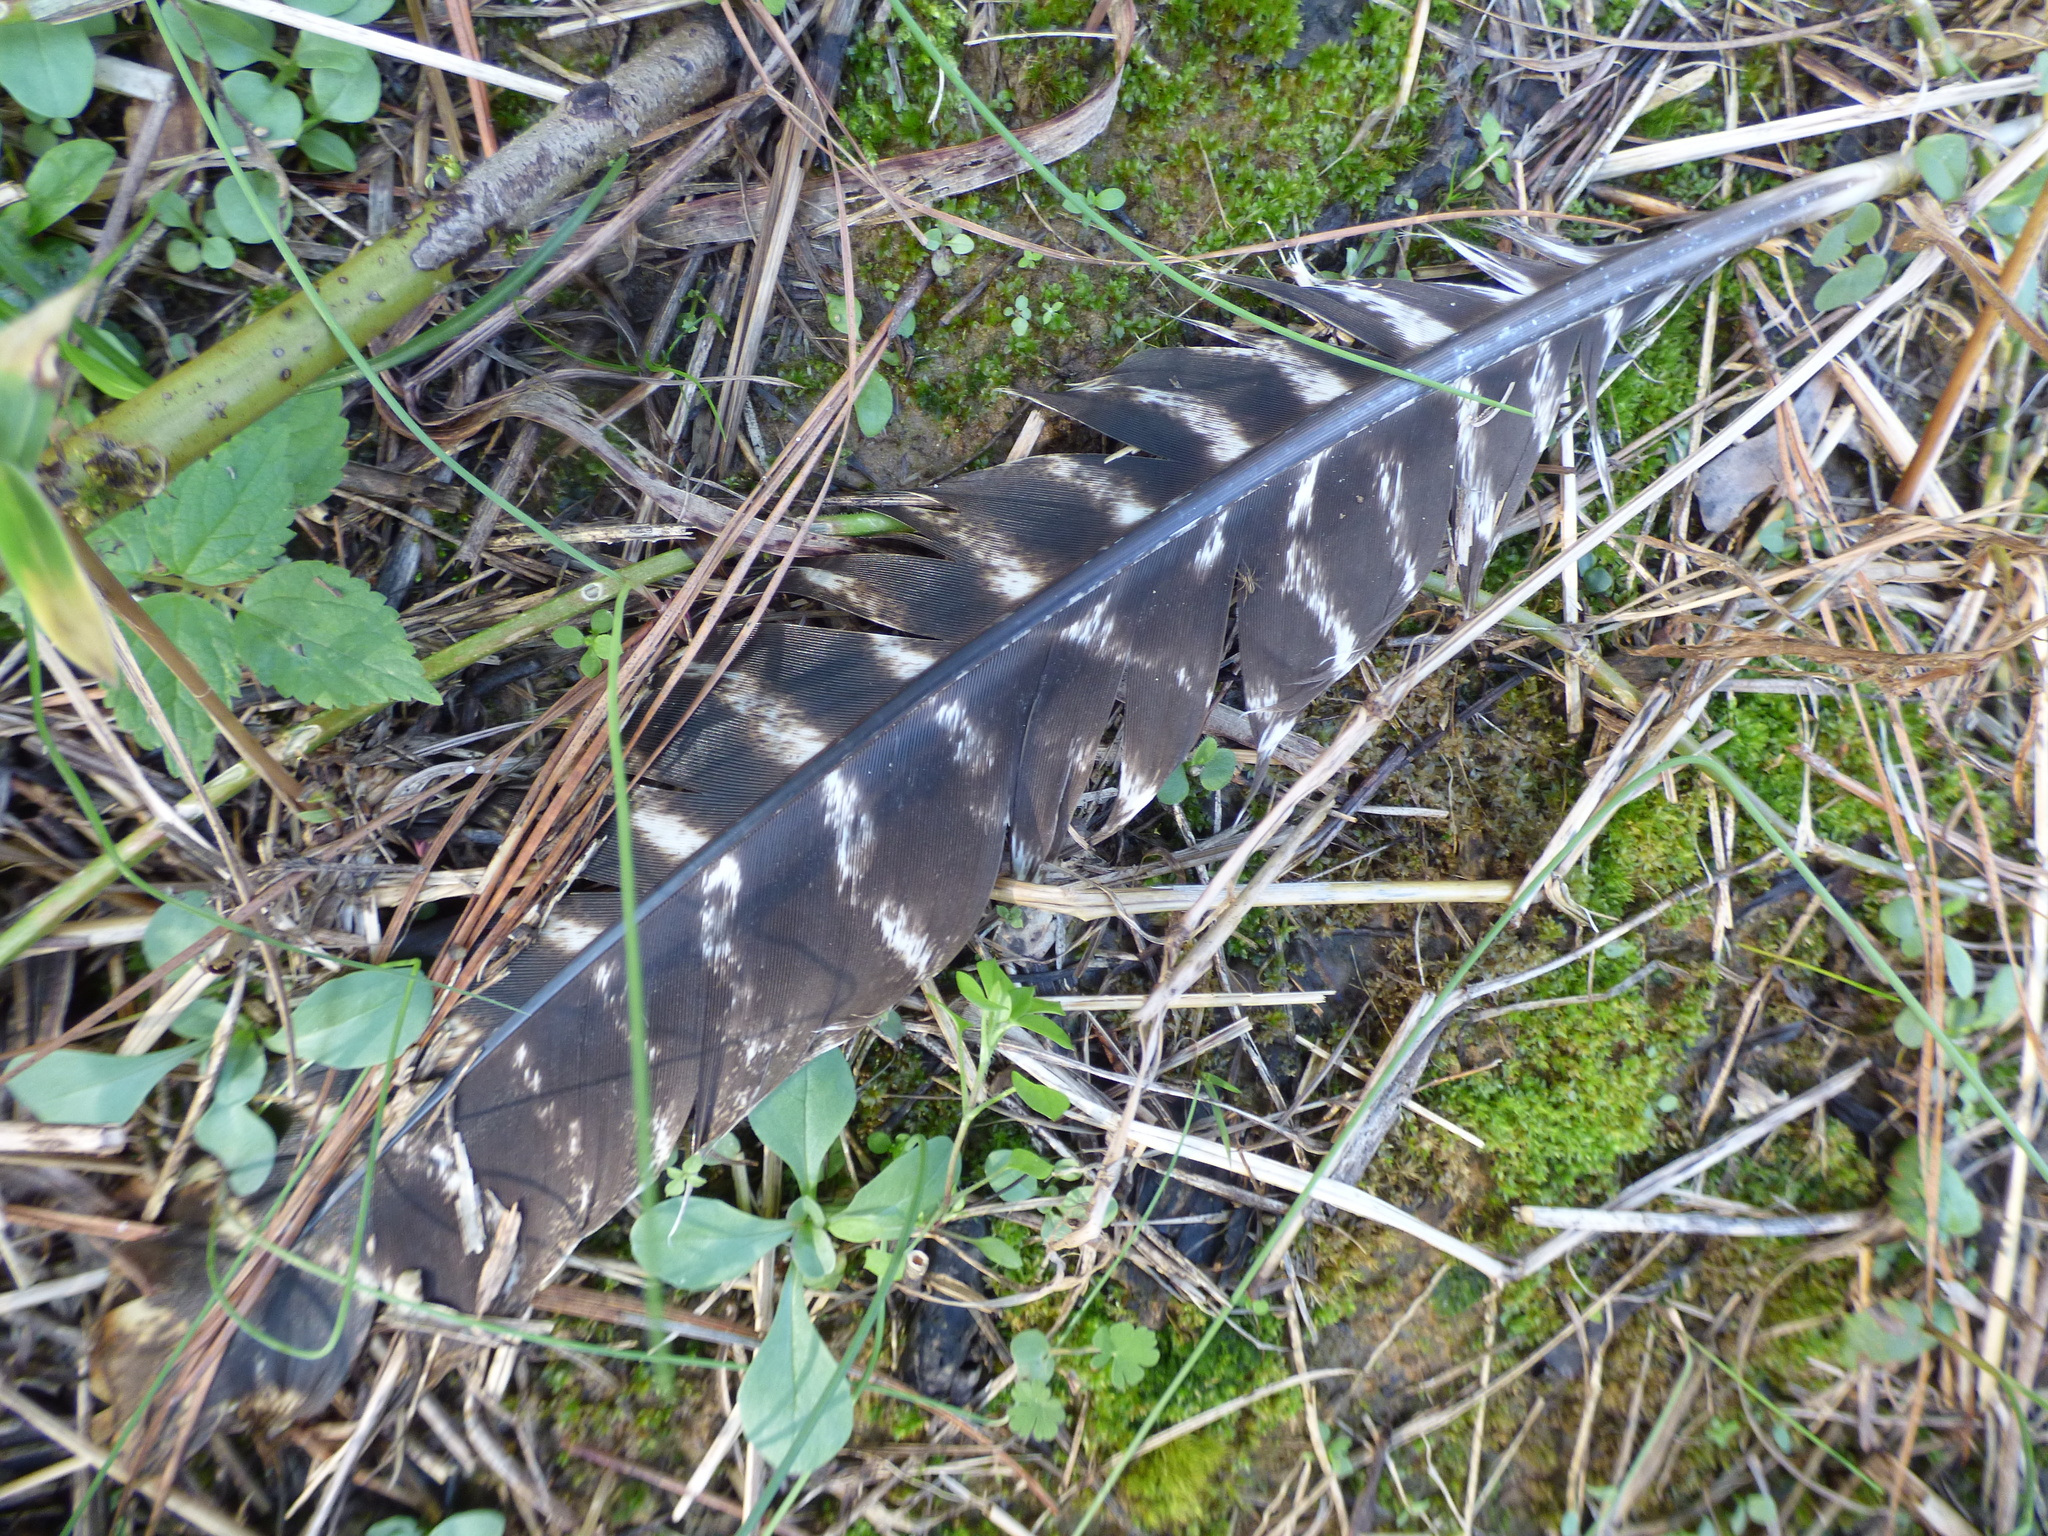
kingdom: Animalia
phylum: Chordata
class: Aves
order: Galliformes
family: Phasianidae
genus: Meleagris
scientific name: Meleagris gallopavo
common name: Wild turkey
